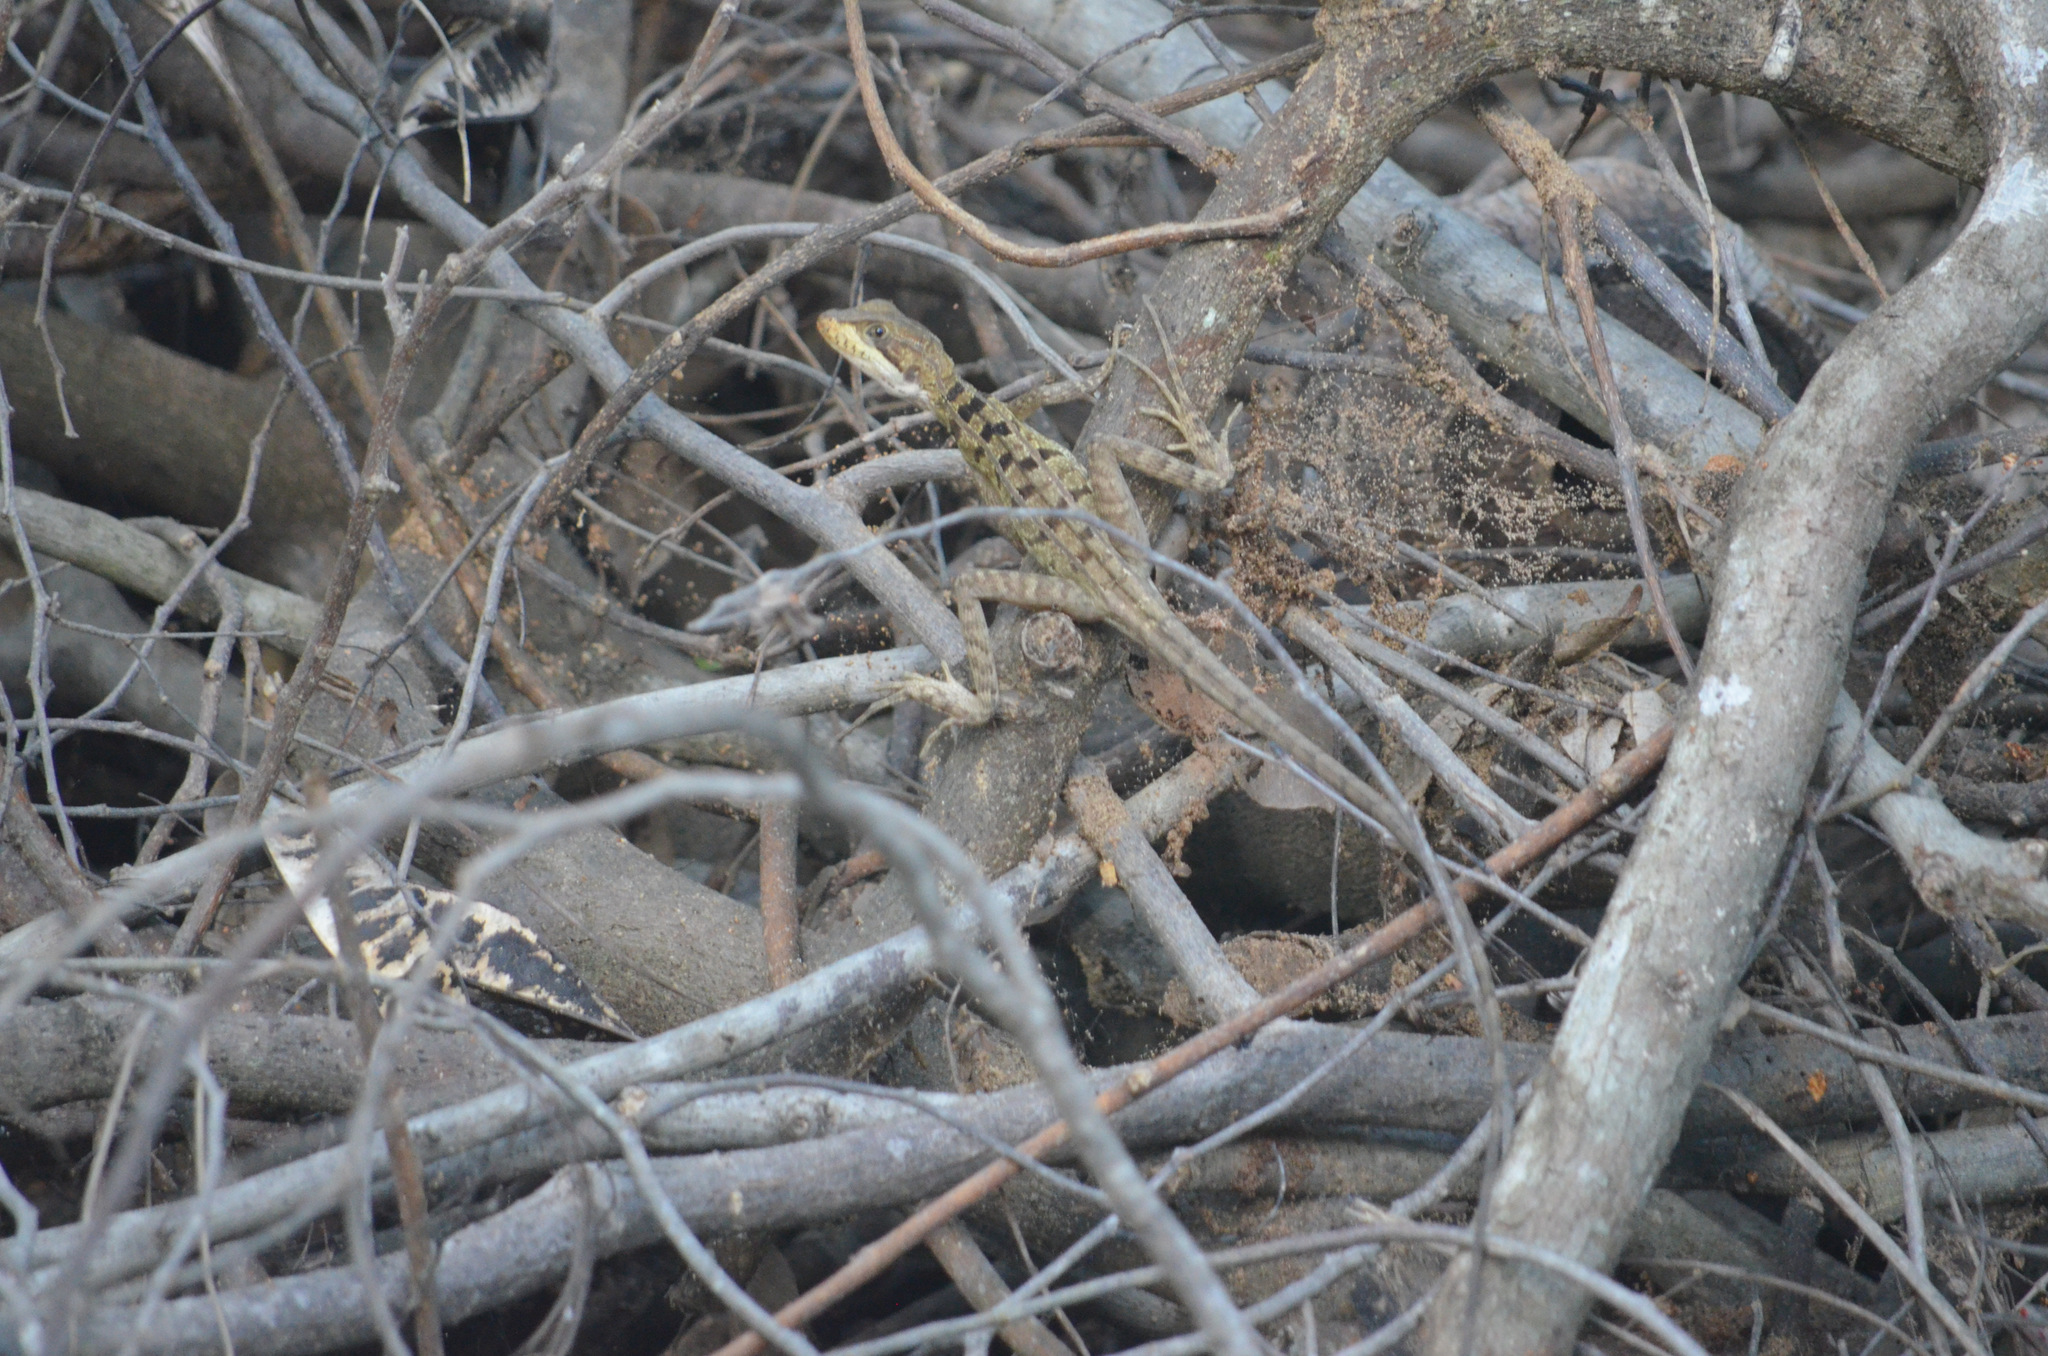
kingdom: Animalia
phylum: Chordata
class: Squamata
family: Corytophanidae
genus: Basiliscus
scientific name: Basiliscus vittatus
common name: Brown basilisk
